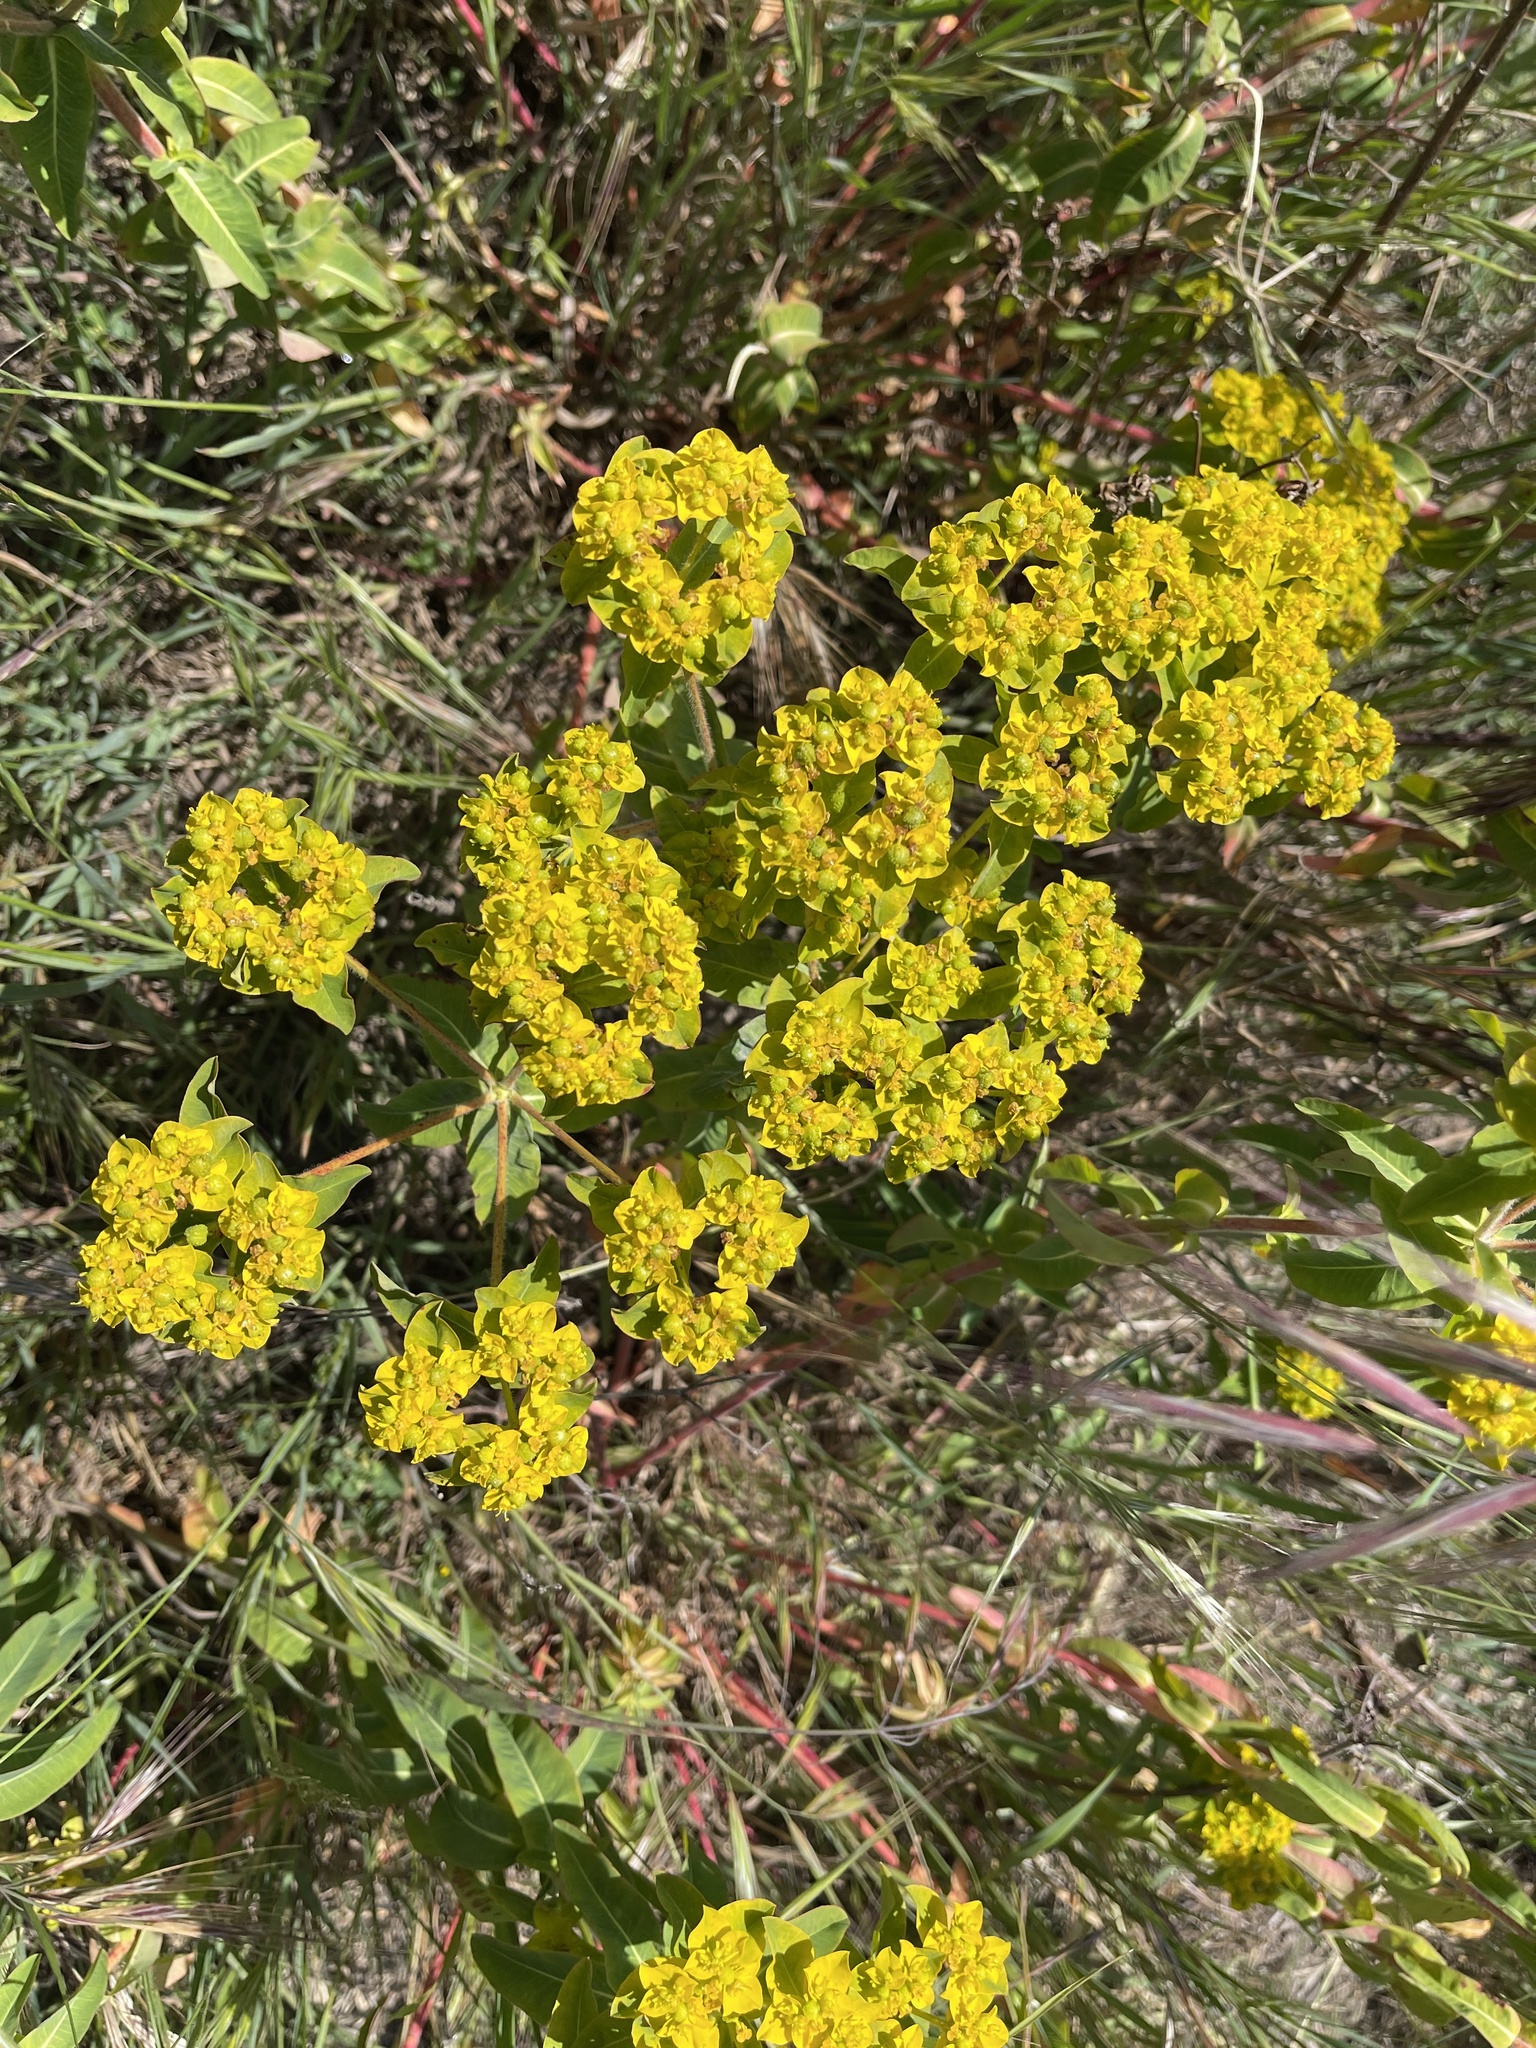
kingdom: Plantae
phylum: Tracheophyta
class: Magnoliopsida
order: Malpighiales
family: Euphorbiaceae
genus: Euphorbia
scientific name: Euphorbia oblongata
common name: Balkan spurge
